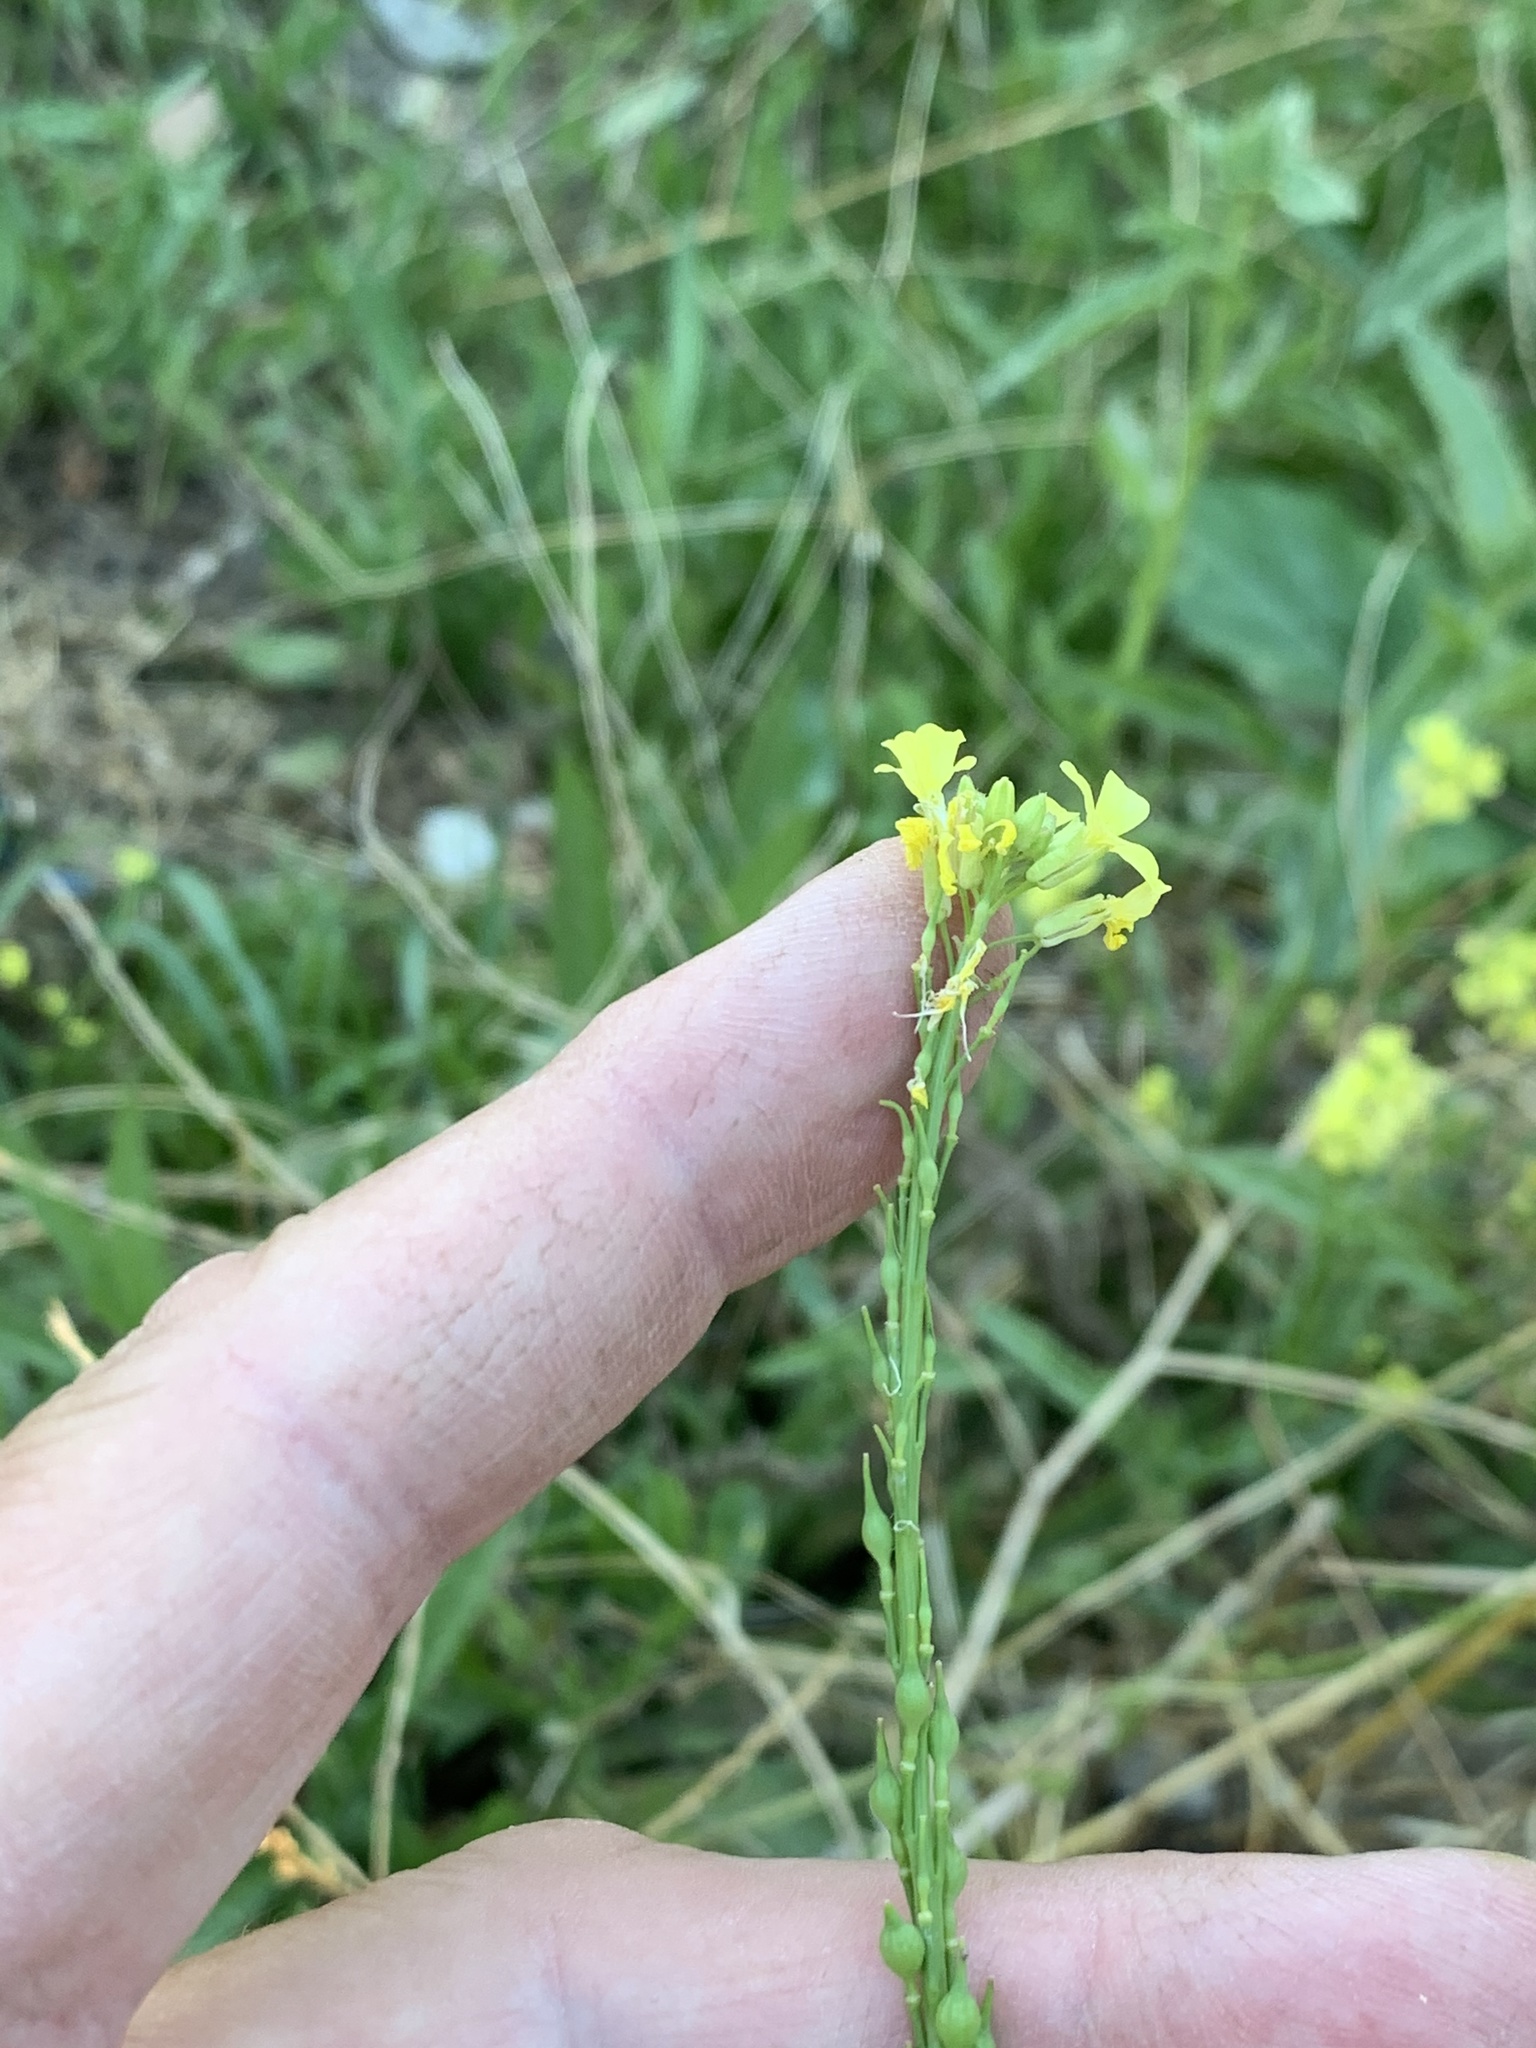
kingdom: Plantae
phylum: Tracheophyta
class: Magnoliopsida
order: Brassicales
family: Brassicaceae
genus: Rapistrum
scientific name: Rapistrum rugosum
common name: Annual bastardcabbage
